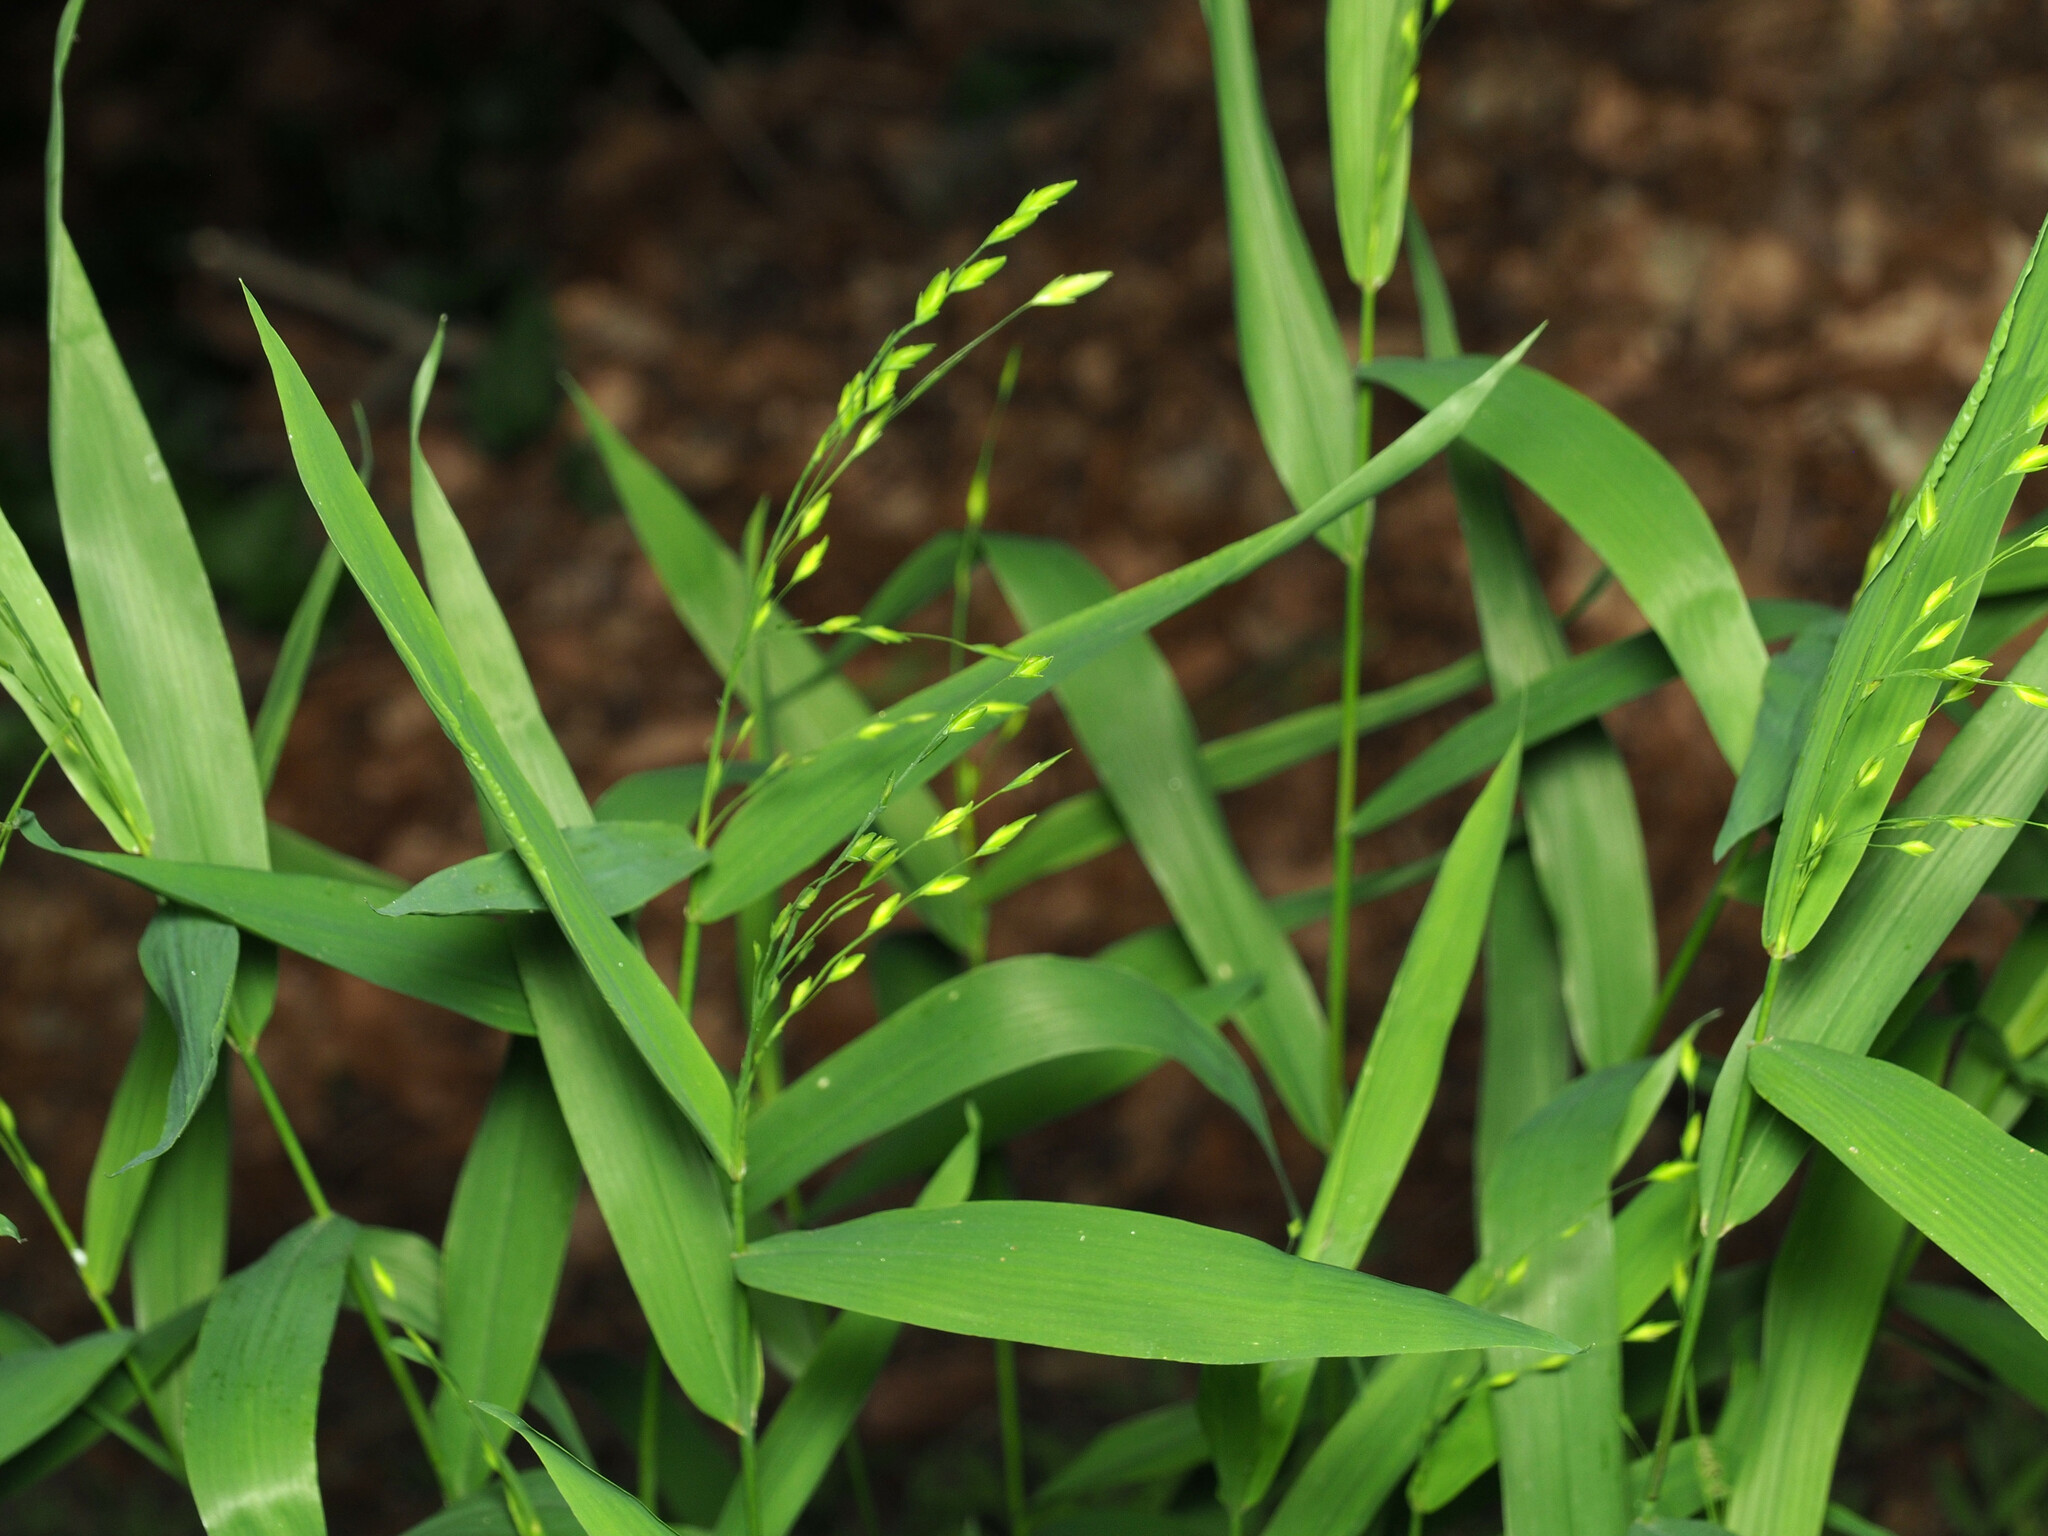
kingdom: Plantae
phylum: Tracheophyta
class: Liliopsida
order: Poales
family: Poaceae
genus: Chasmanthium
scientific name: Chasmanthium latifolium
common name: Broad-leaved chasmanthium
